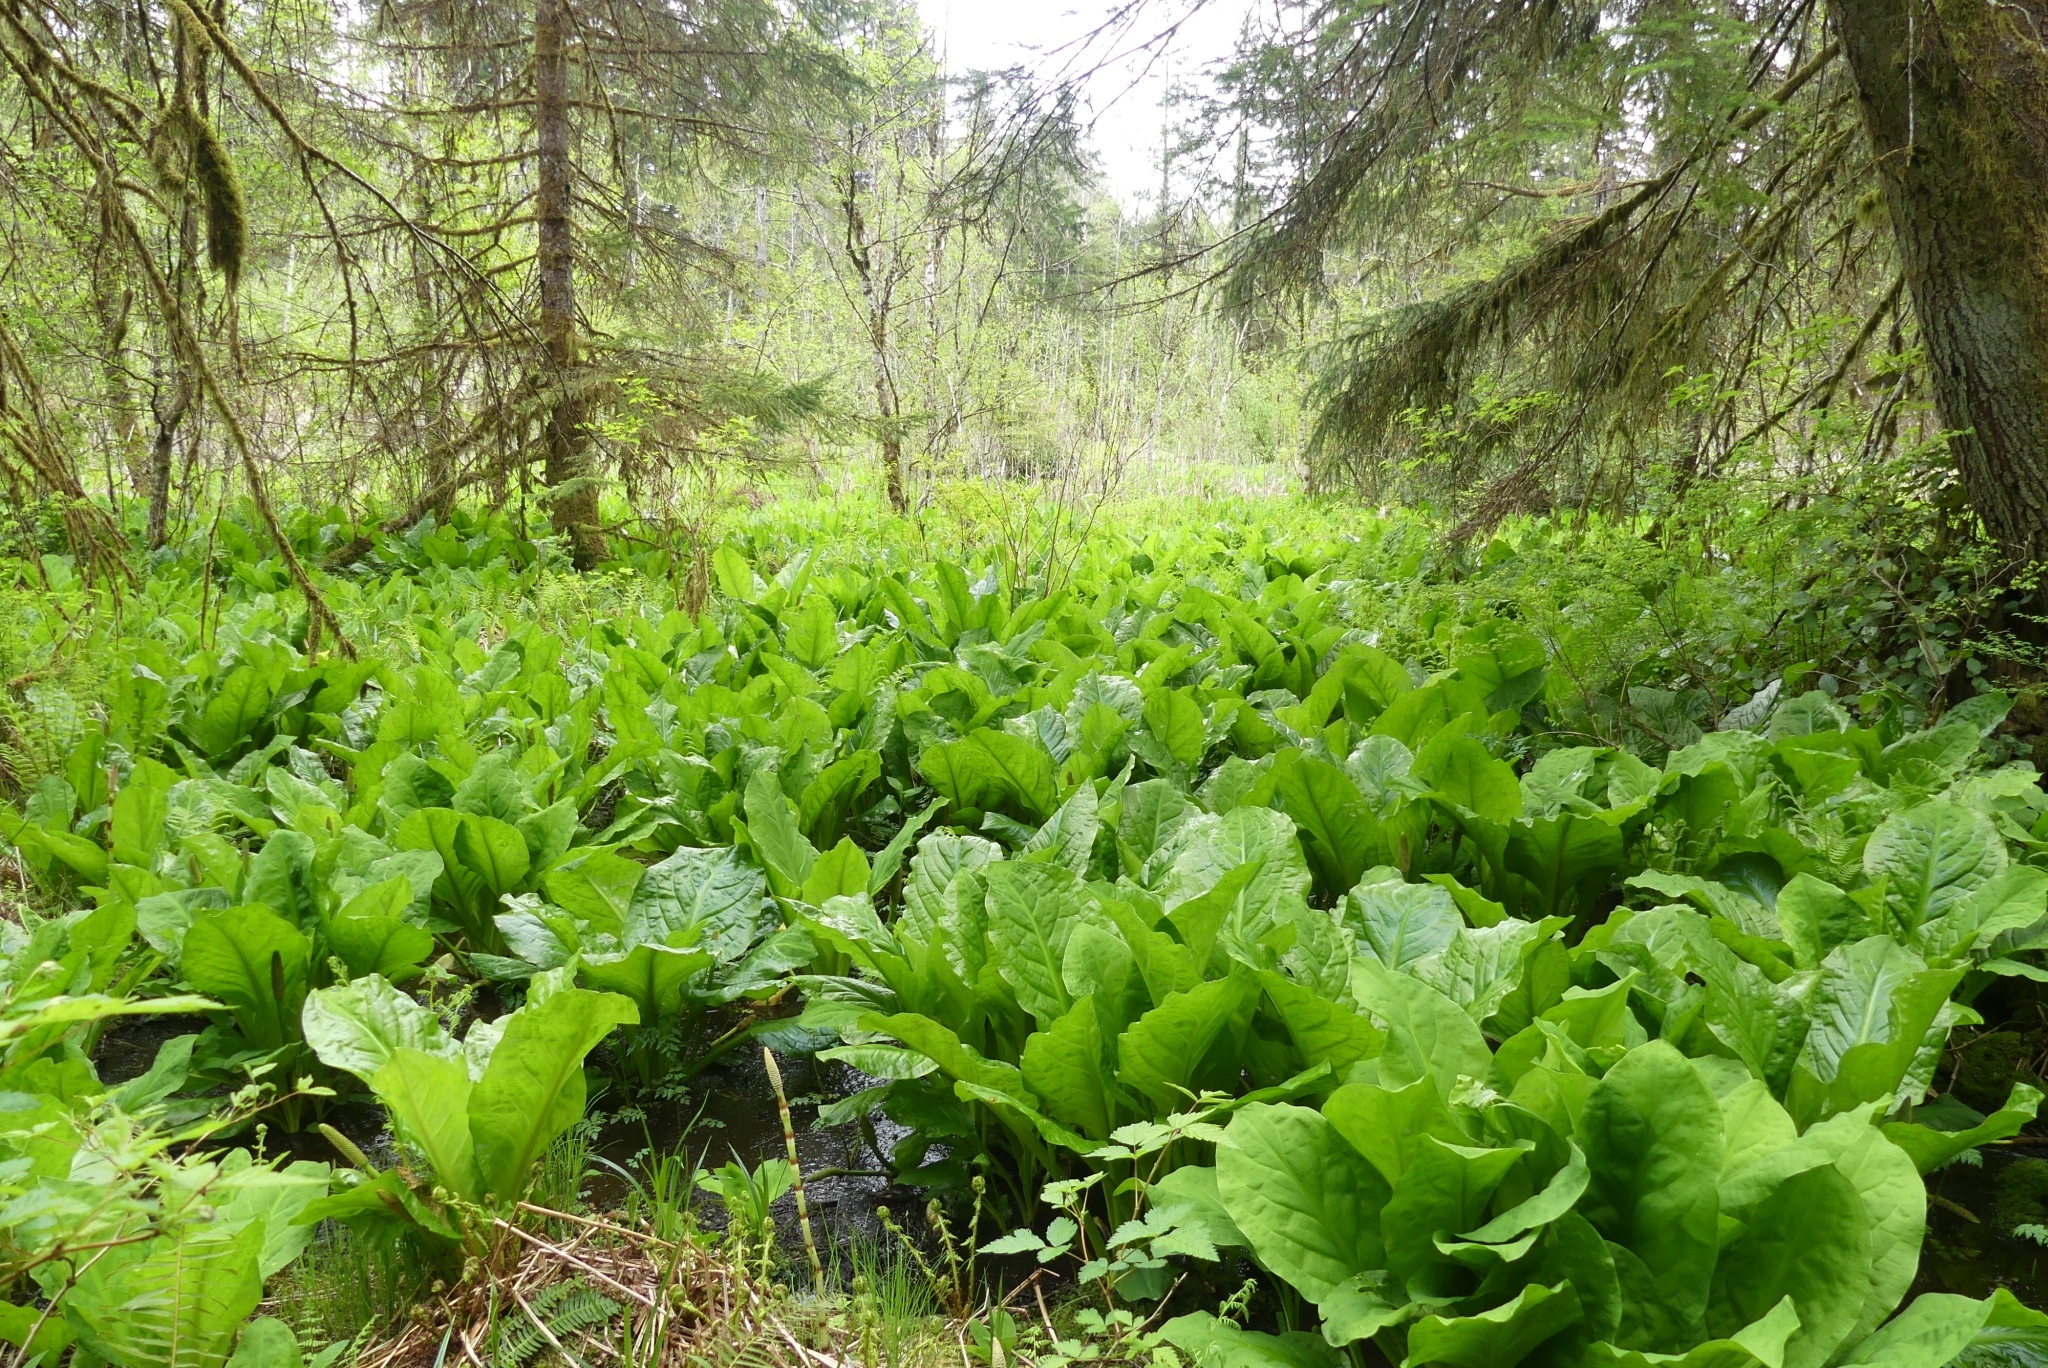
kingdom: Plantae
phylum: Tracheophyta
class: Liliopsida
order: Alismatales
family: Araceae
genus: Lysichiton
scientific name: Lysichiton americanus
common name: American skunk cabbage
